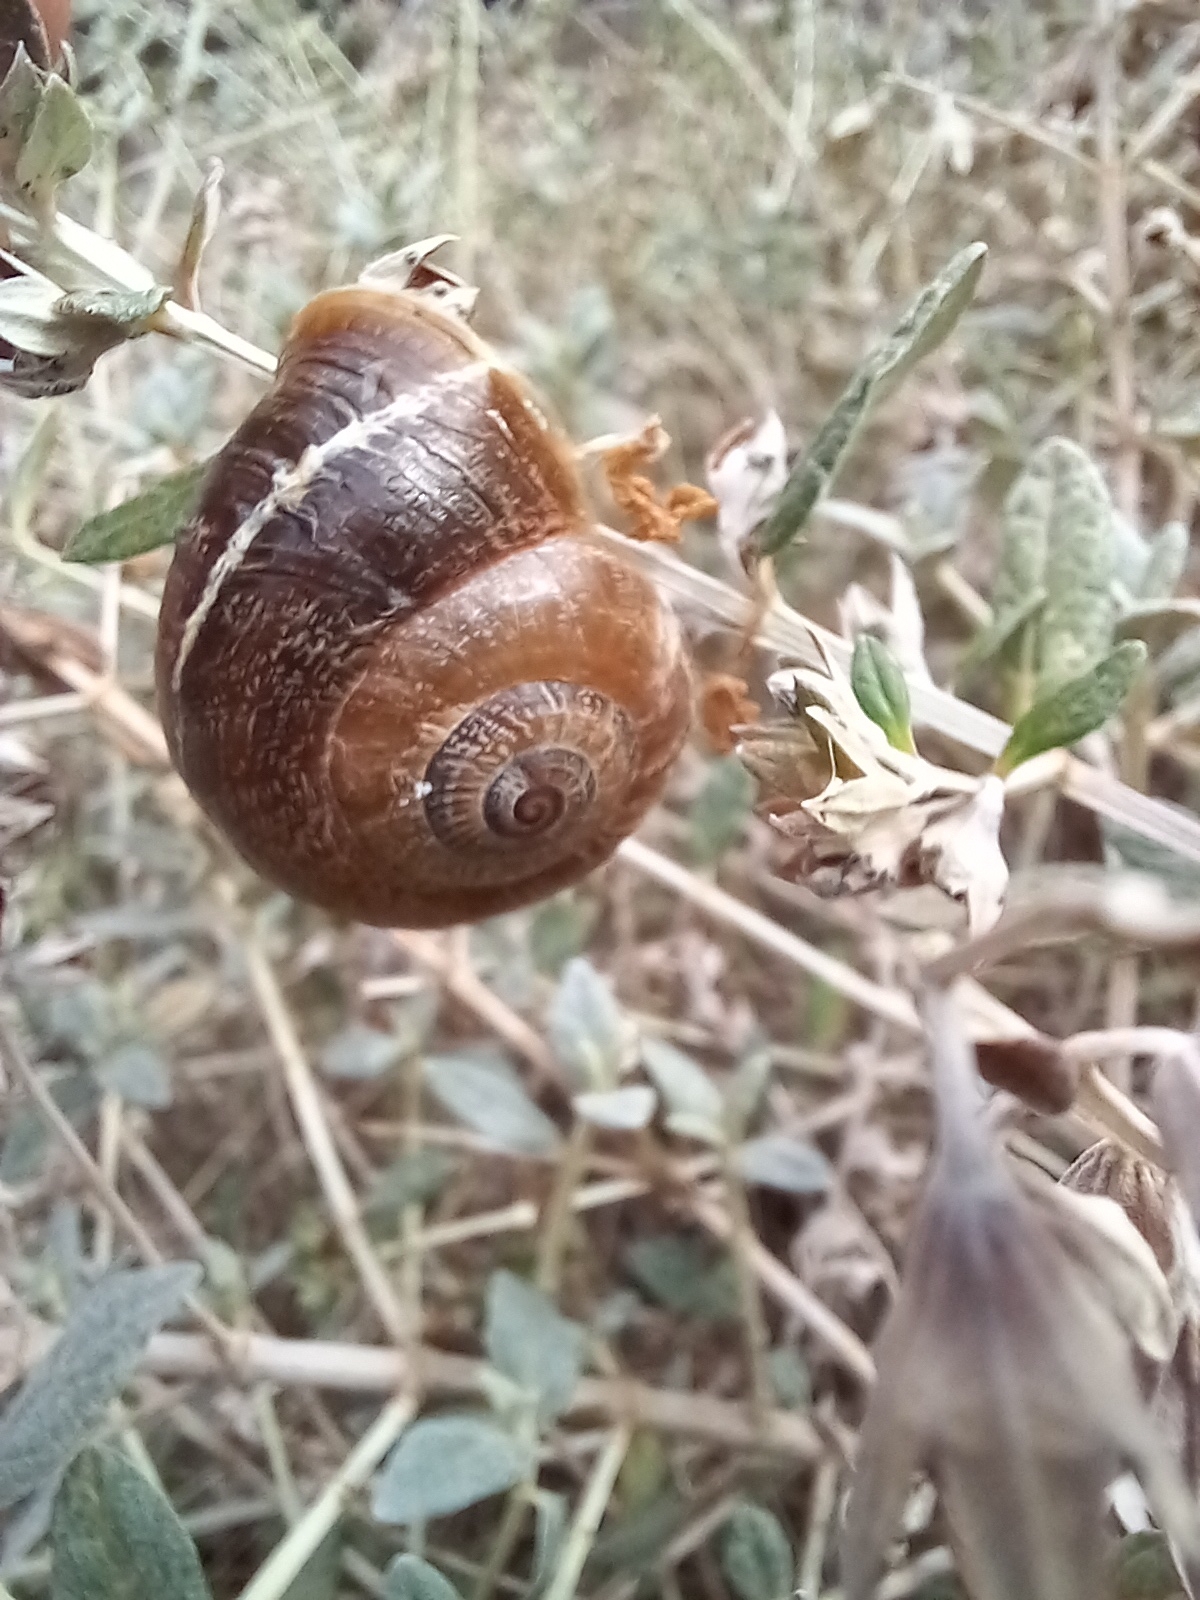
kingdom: Animalia
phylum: Mollusca
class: Gastropoda
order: Stylommatophora
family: Helicidae
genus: Otala
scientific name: Otala punctata
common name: Milk snail
